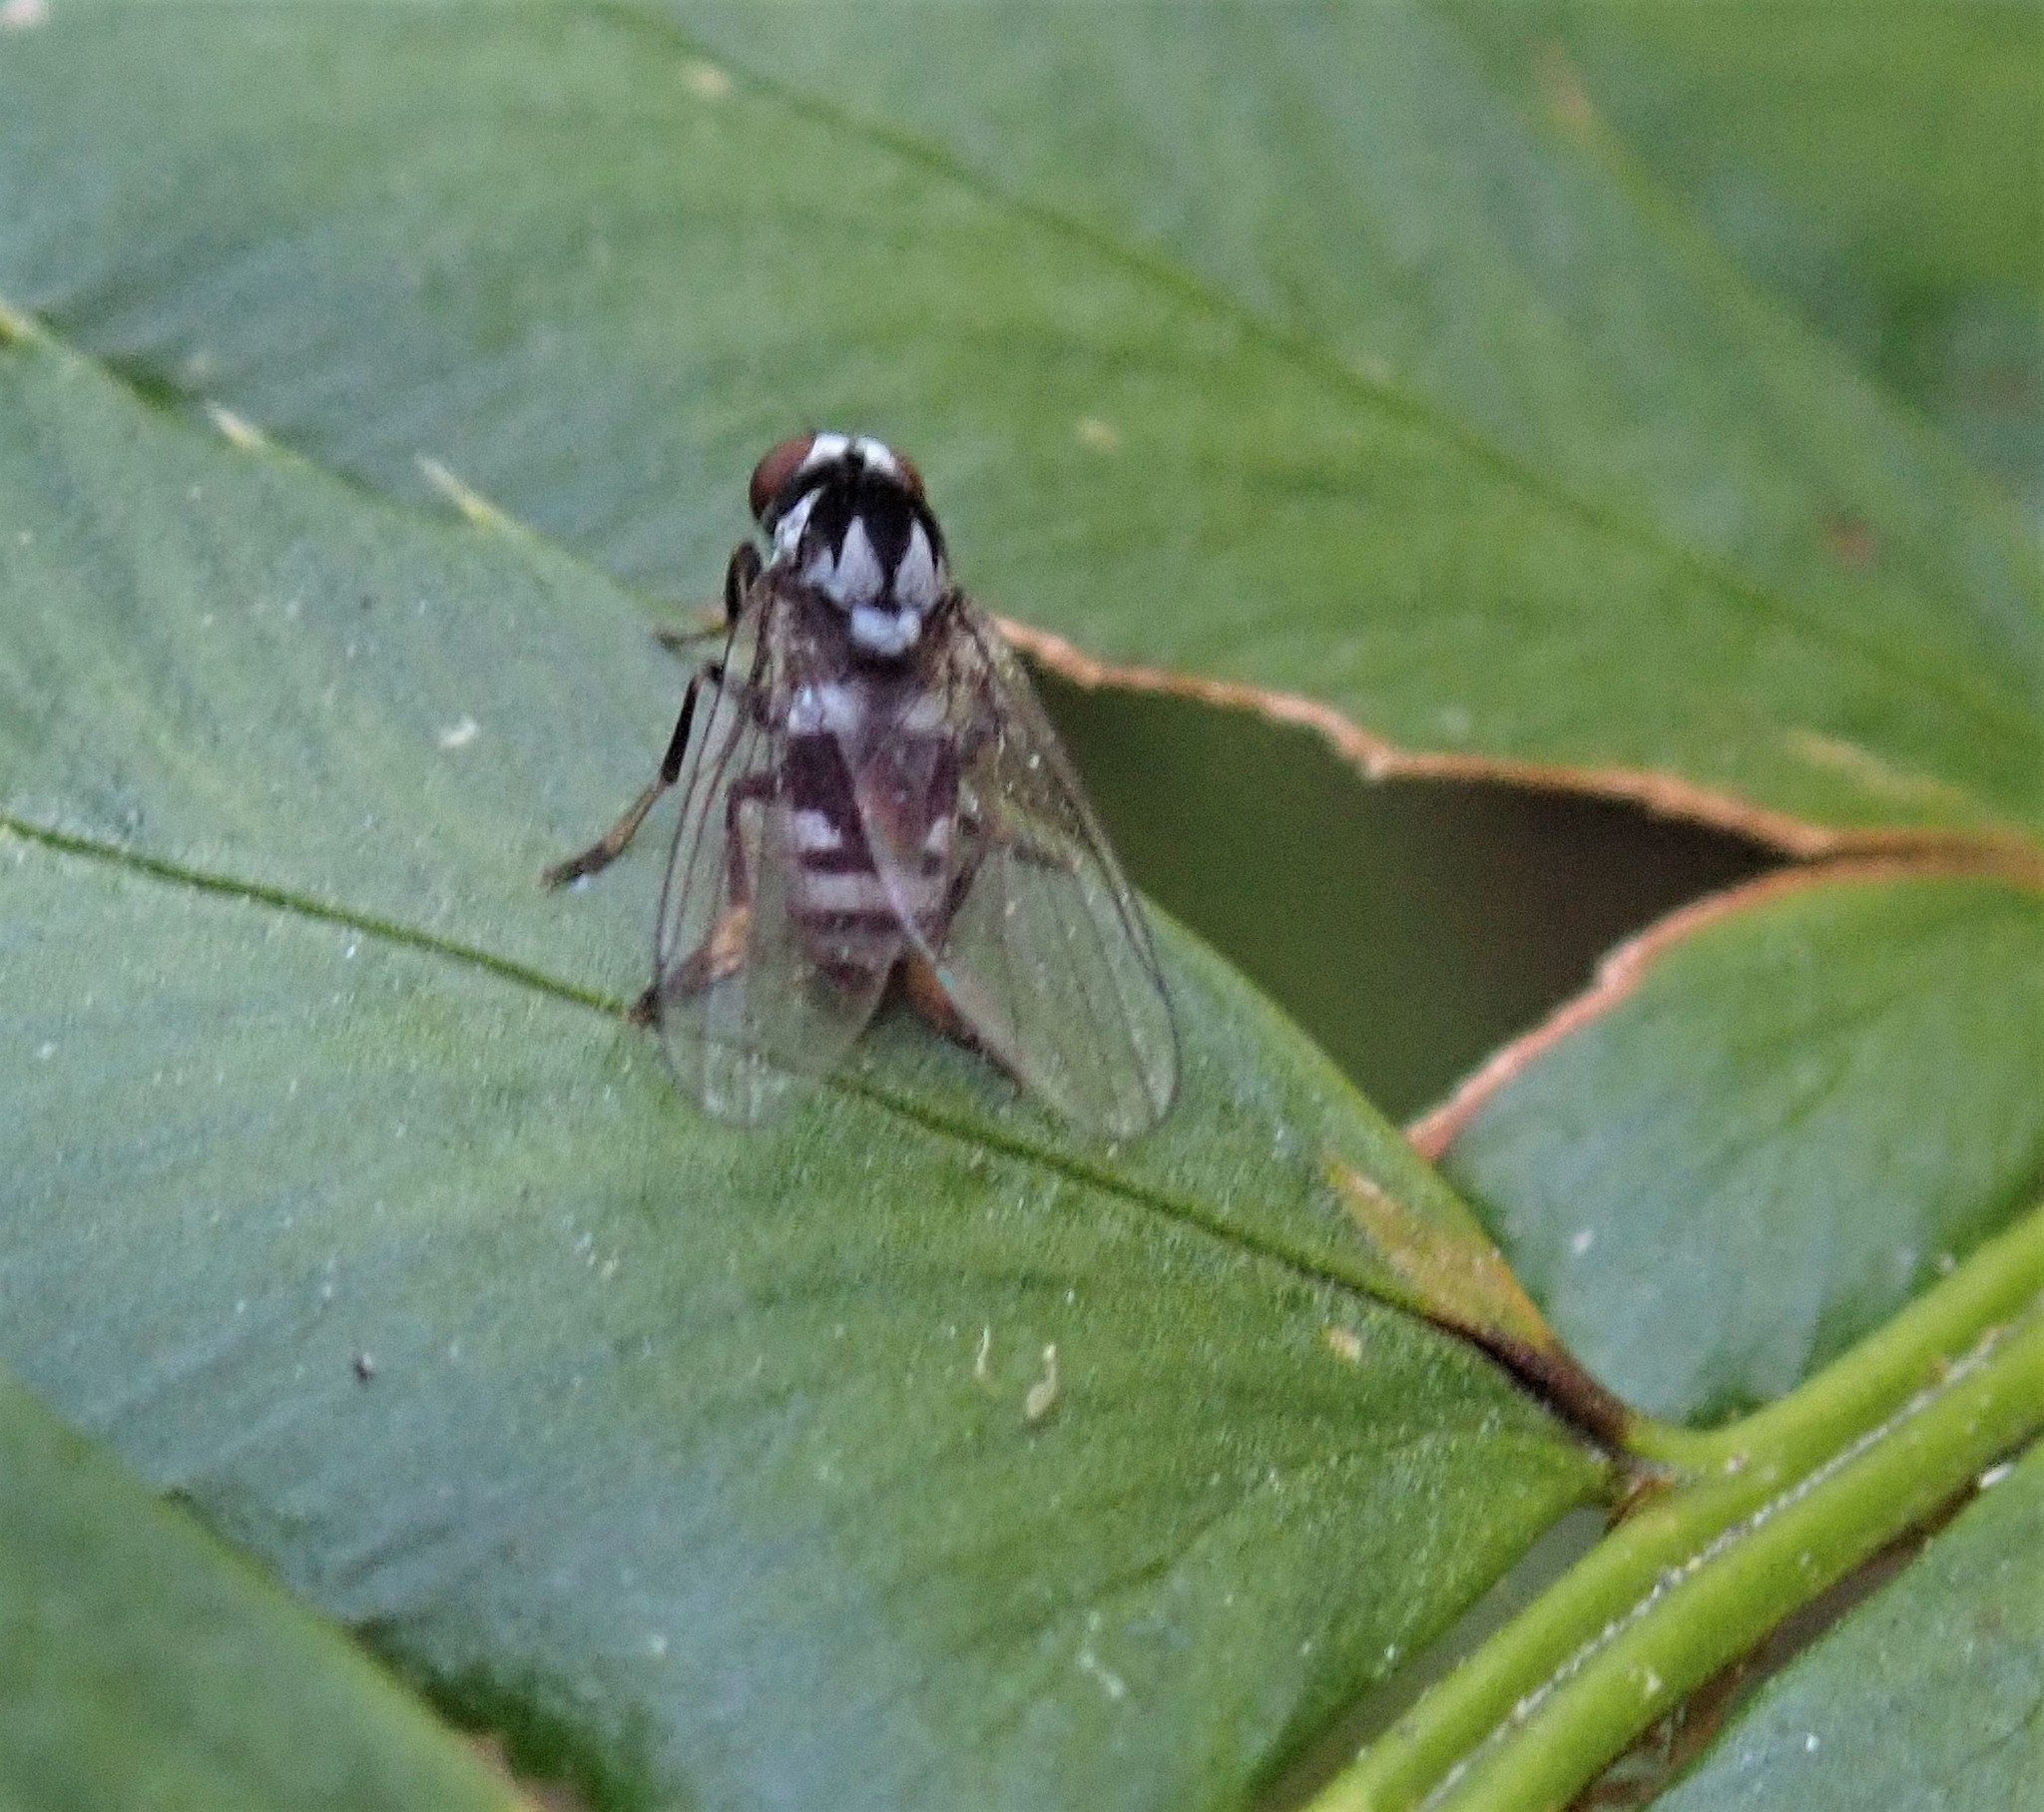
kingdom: Animalia
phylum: Arthropoda
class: Insecta
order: Diptera
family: Platypezidae
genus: Polyporivora
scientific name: Polyporivora polypori
